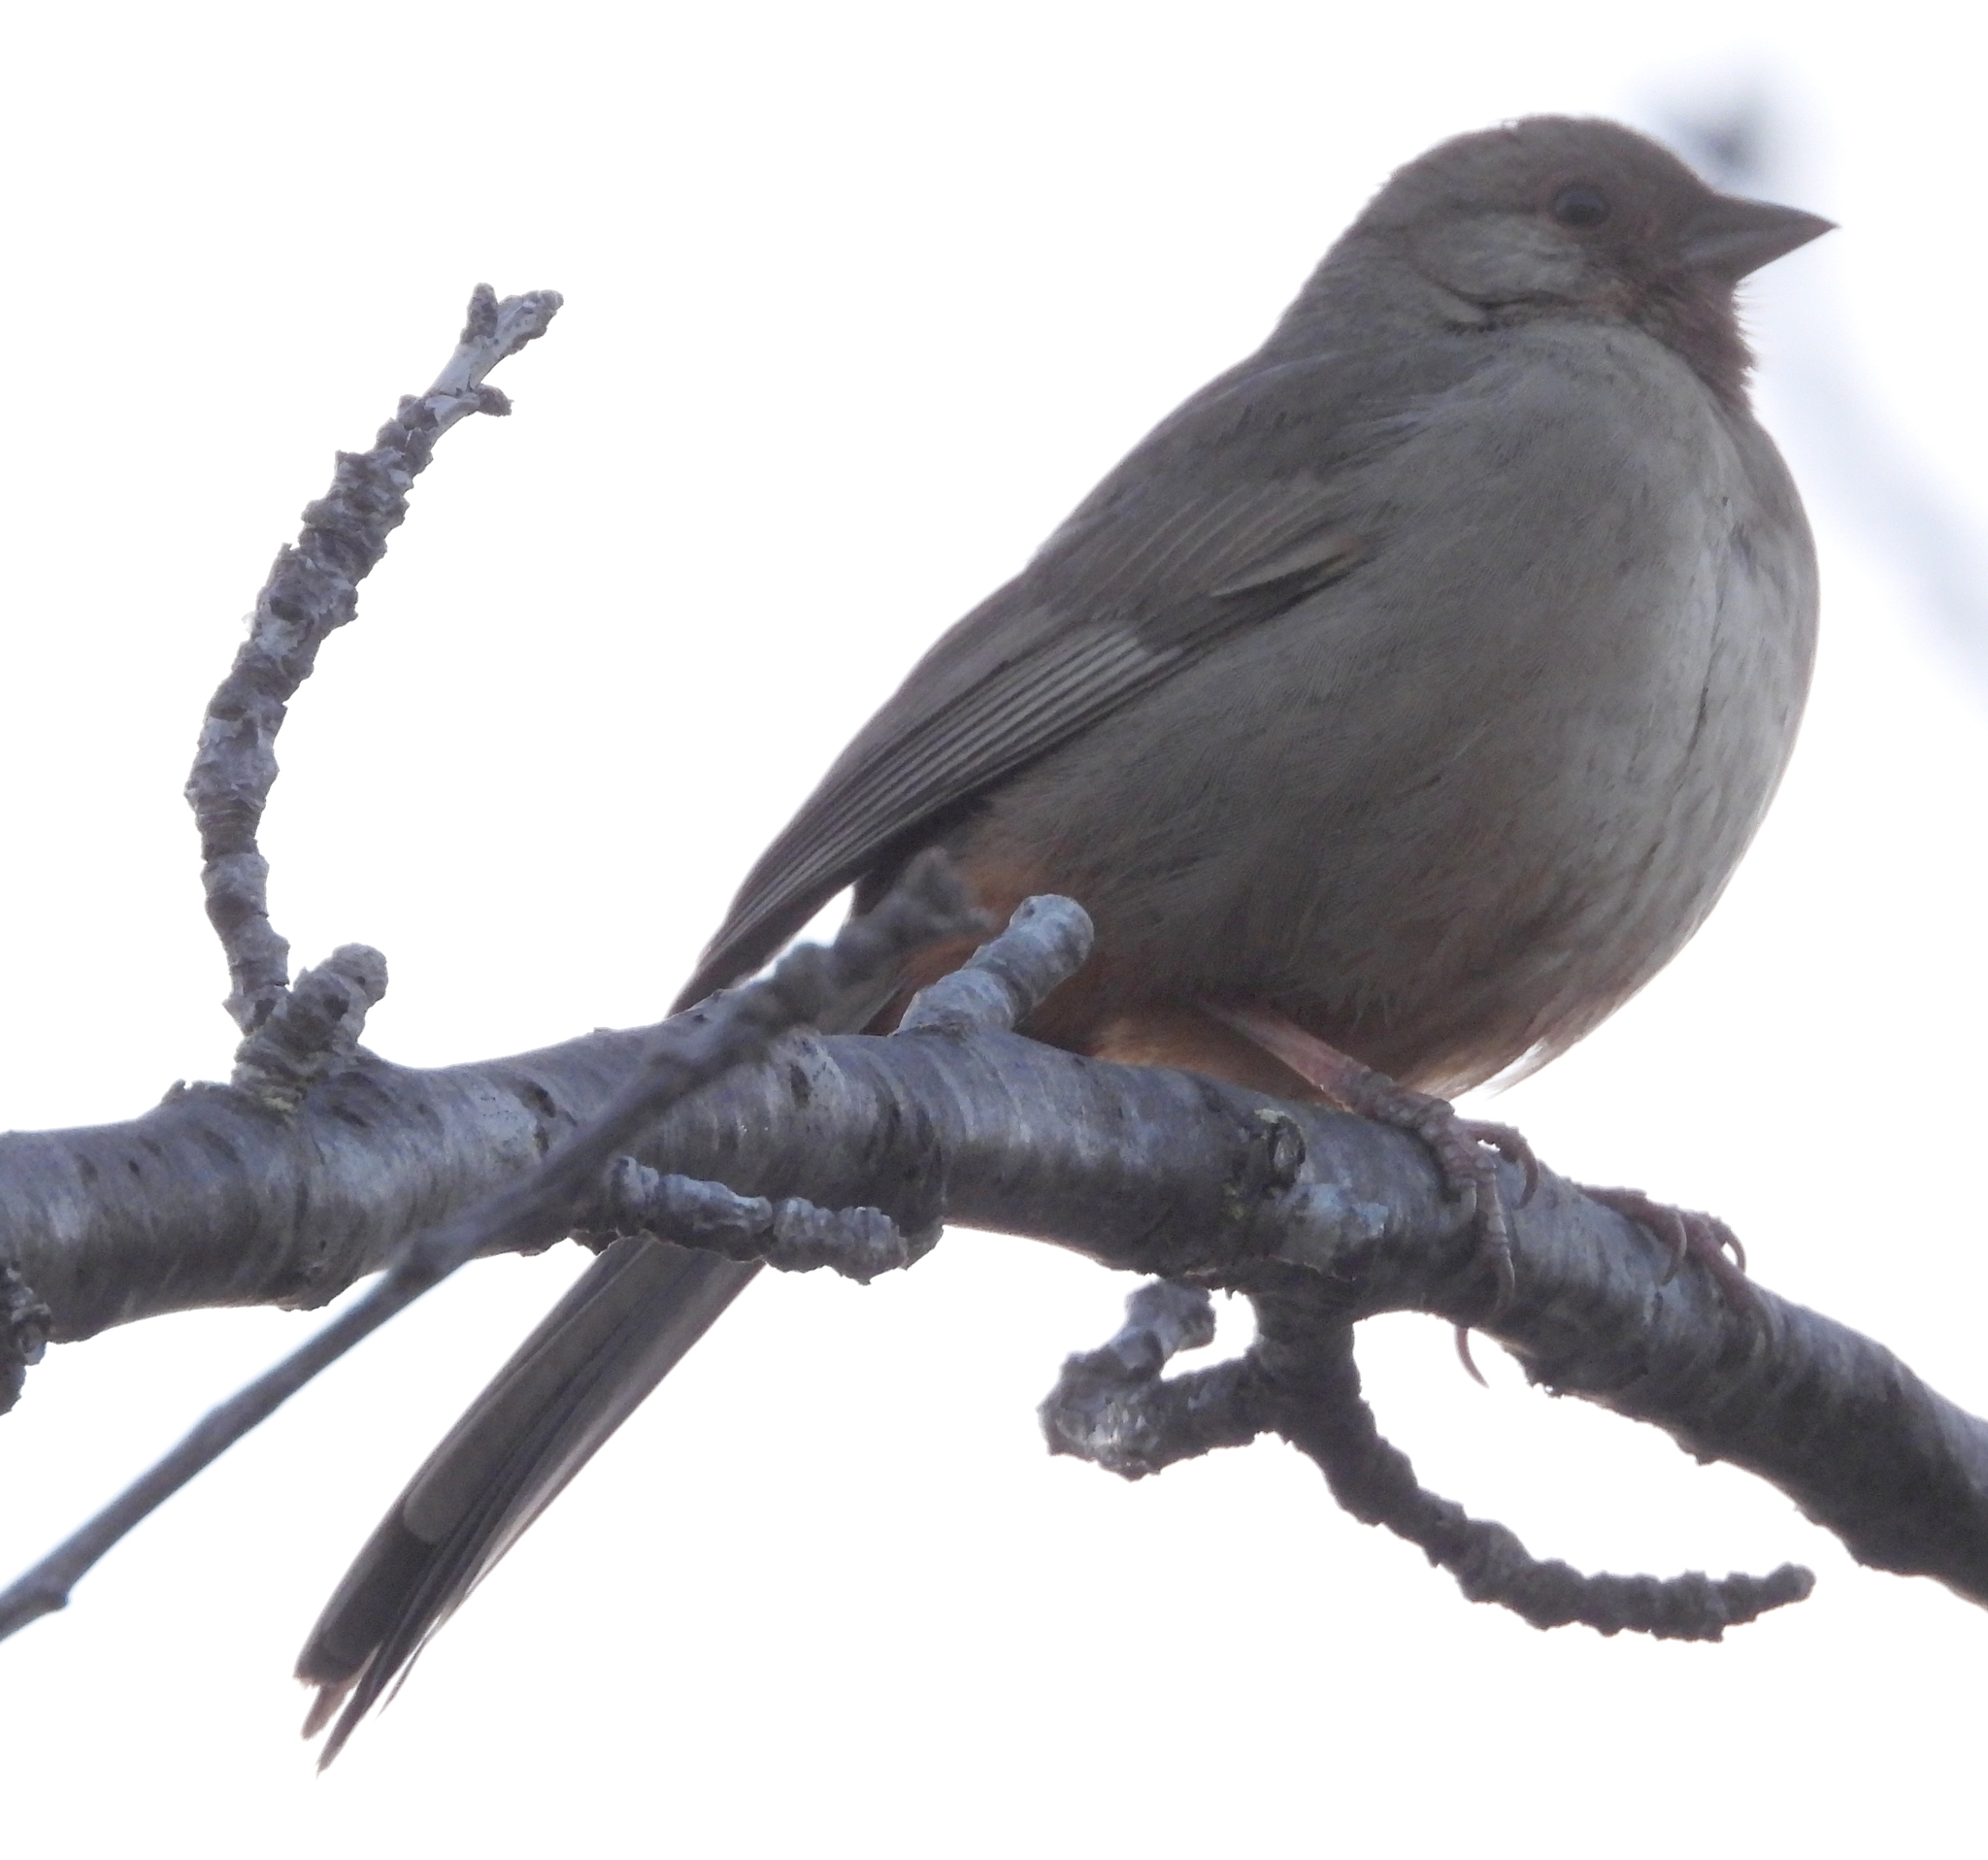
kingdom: Animalia
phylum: Chordata
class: Aves
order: Passeriformes
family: Passerellidae
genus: Melozone
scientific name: Melozone crissalis
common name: California towhee
